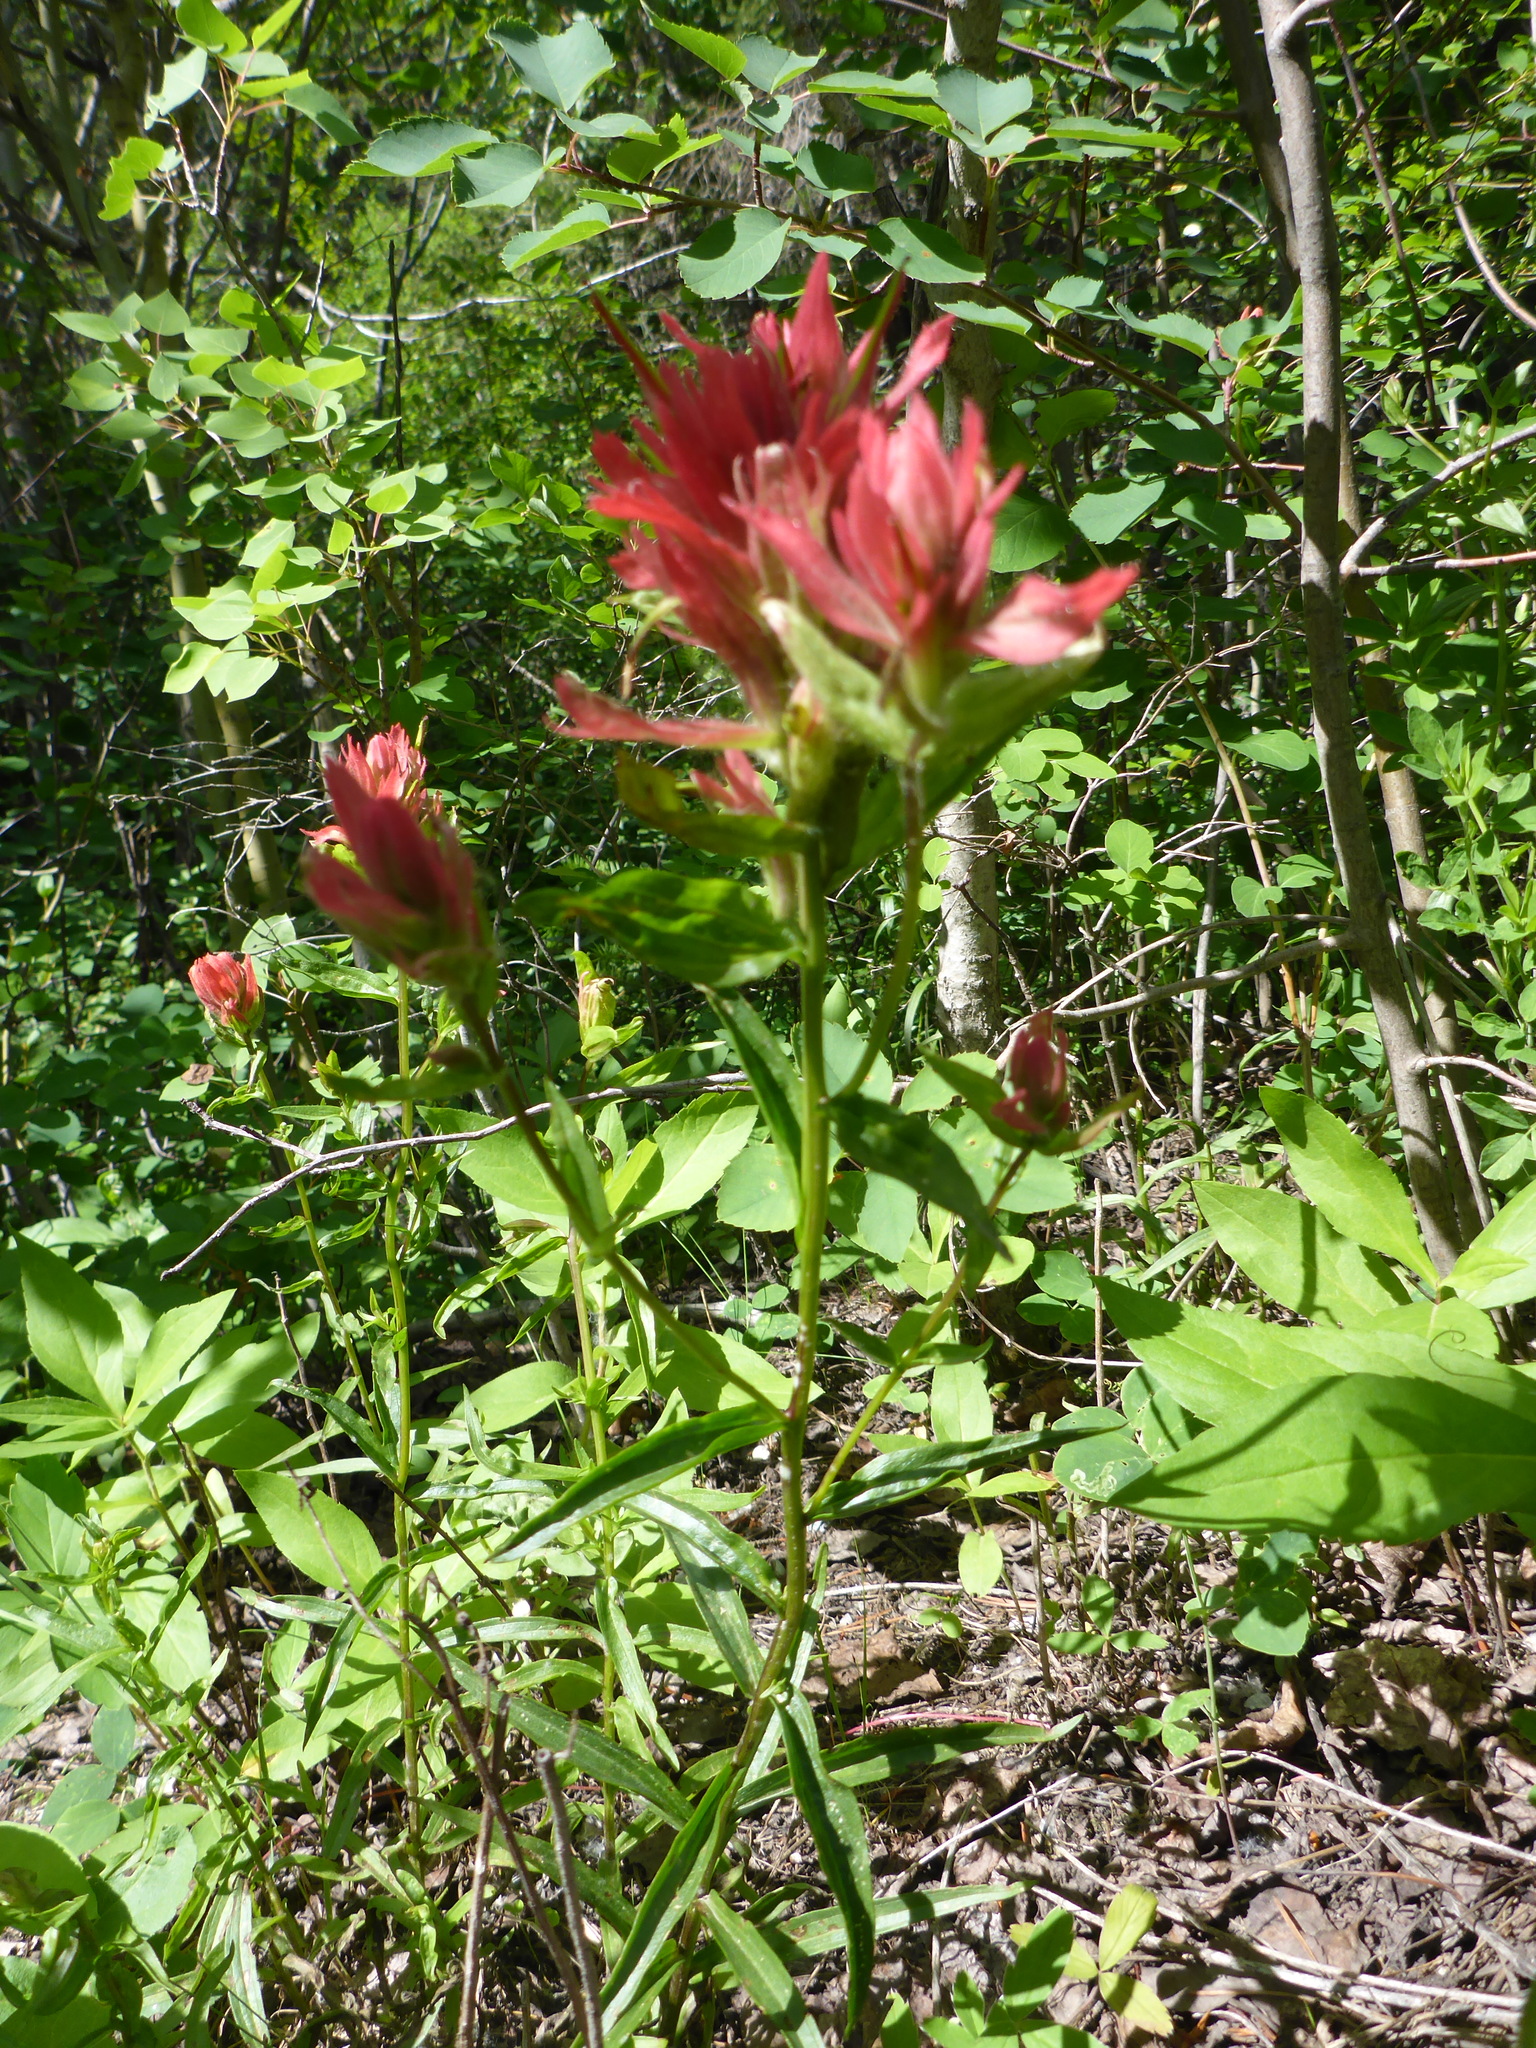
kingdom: Plantae
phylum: Tracheophyta
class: Magnoliopsida
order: Lamiales
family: Orobanchaceae
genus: Castilleja
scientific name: Castilleja miniata
